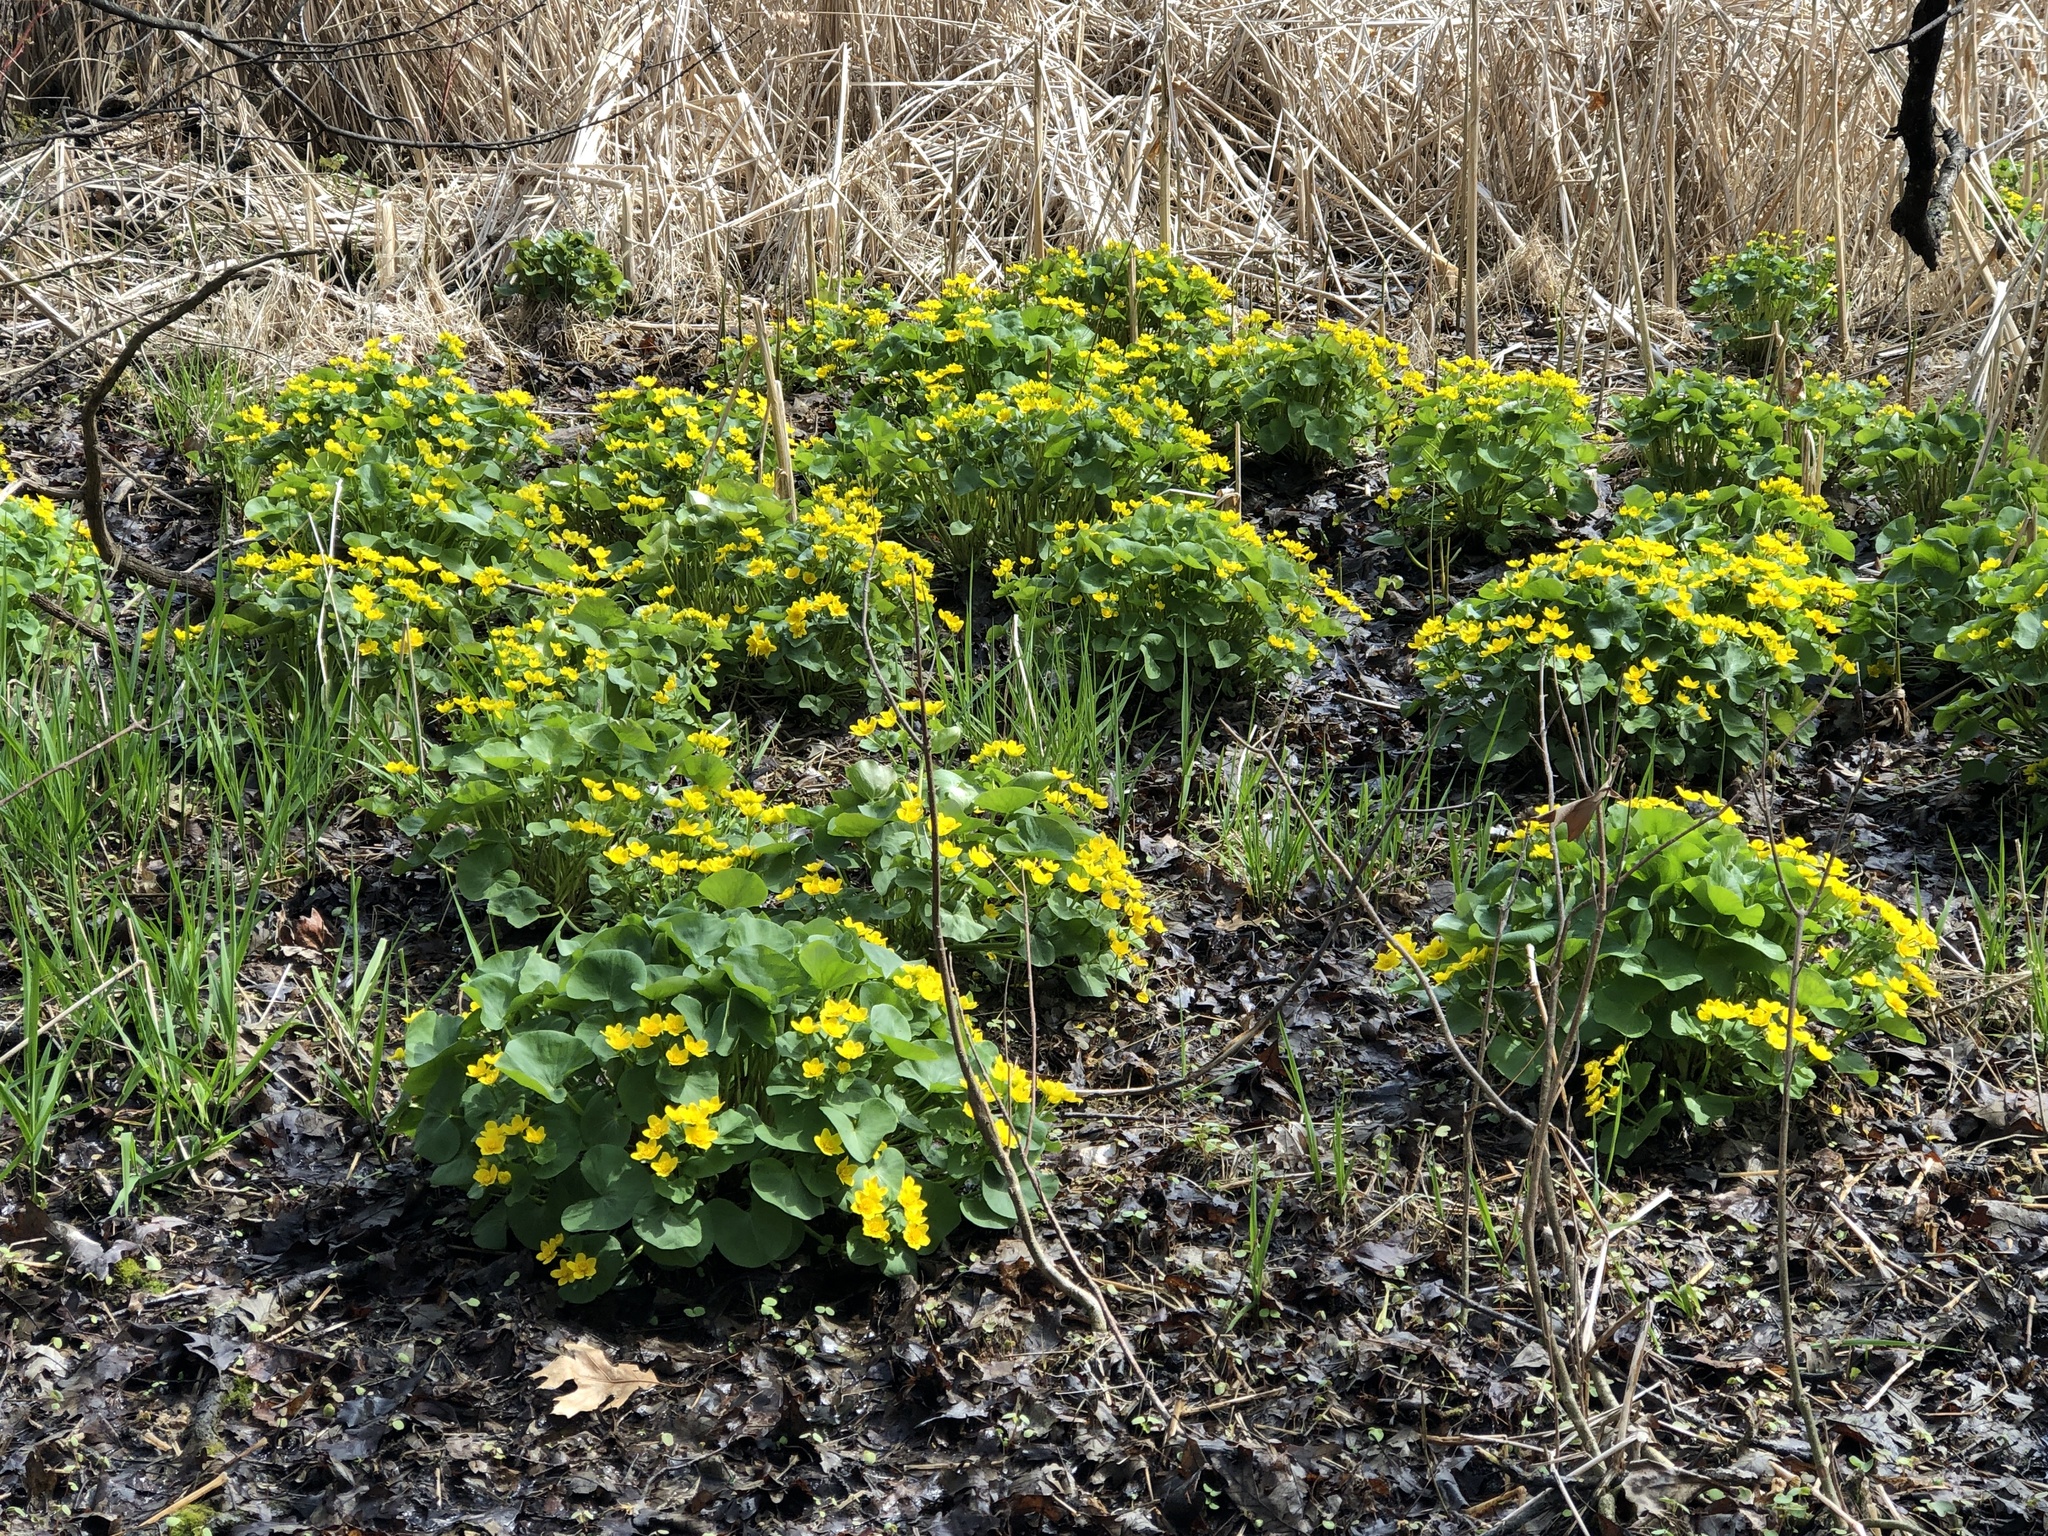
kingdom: Plantae
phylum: Tracheophyta
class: Magnoliopsida
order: Ranunculales
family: Ranunculaceae
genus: Caltha
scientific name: Caltha palustris
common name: Marsh marigold
